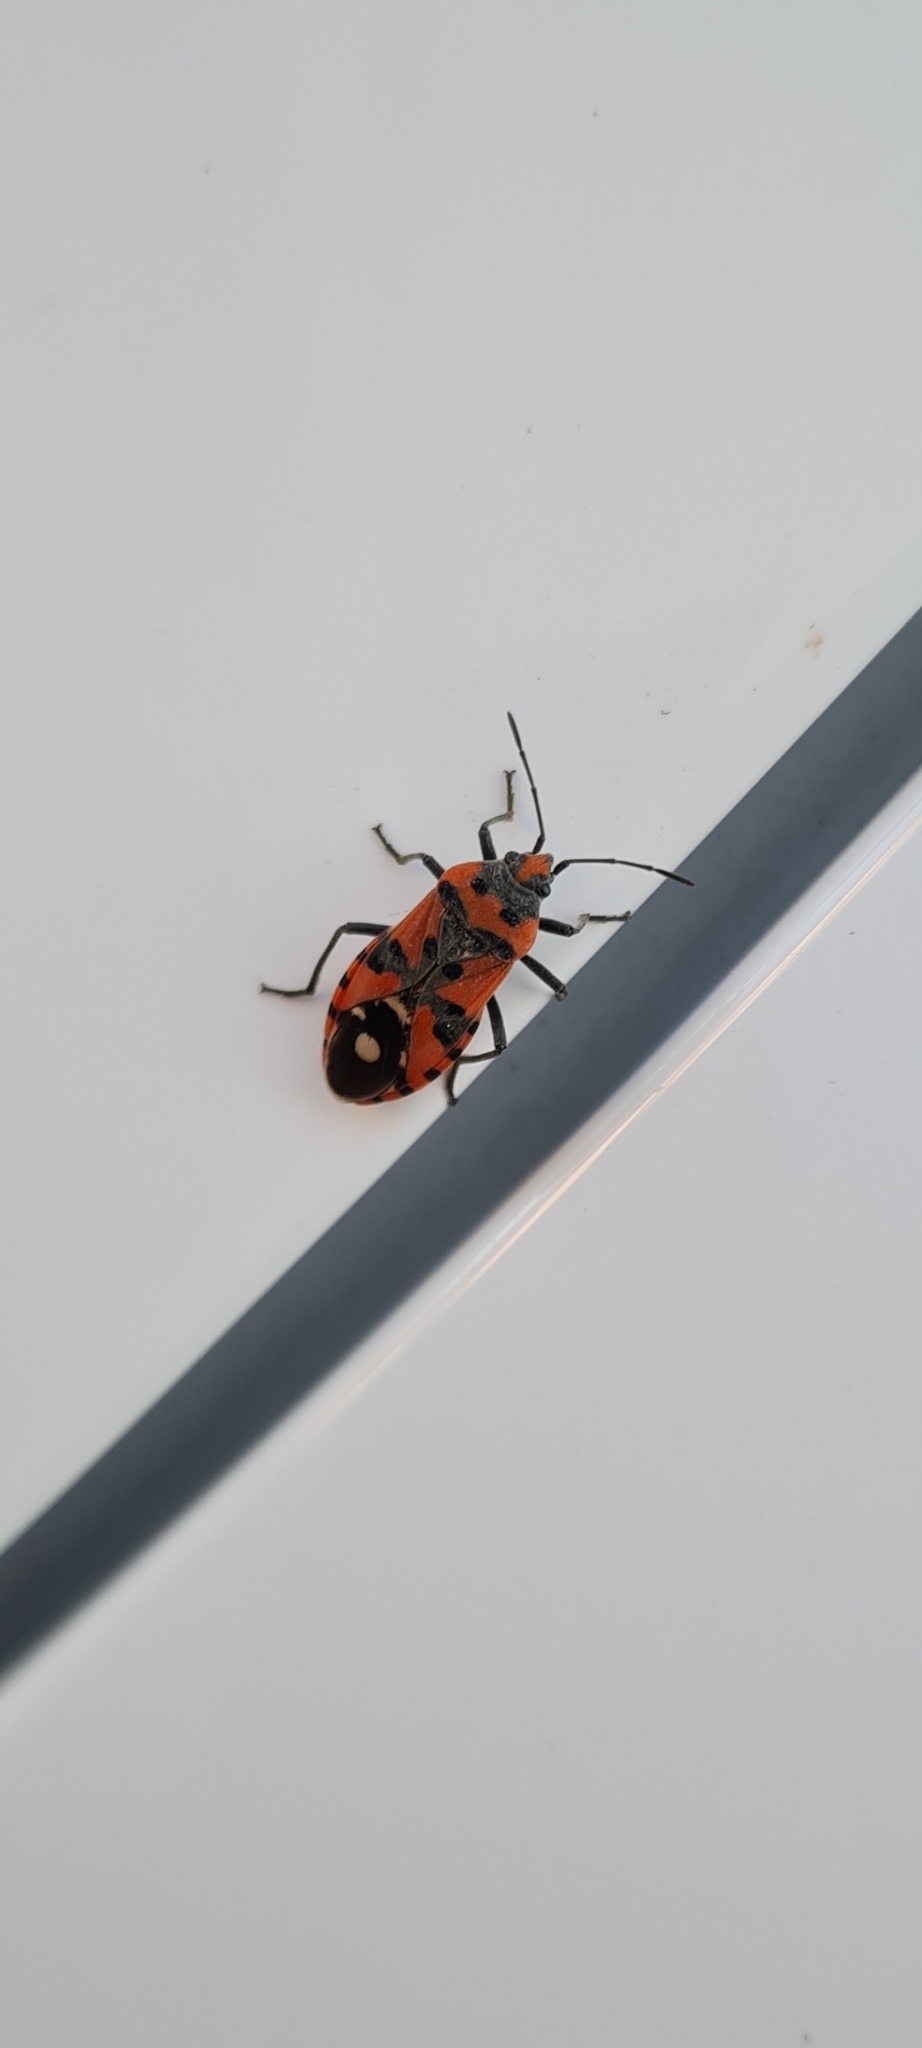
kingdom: Animalia
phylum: Arthropoda
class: Insecta
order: Hemiptera
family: Lygaeidae
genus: Lygaeus
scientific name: Lygaeus equestris
